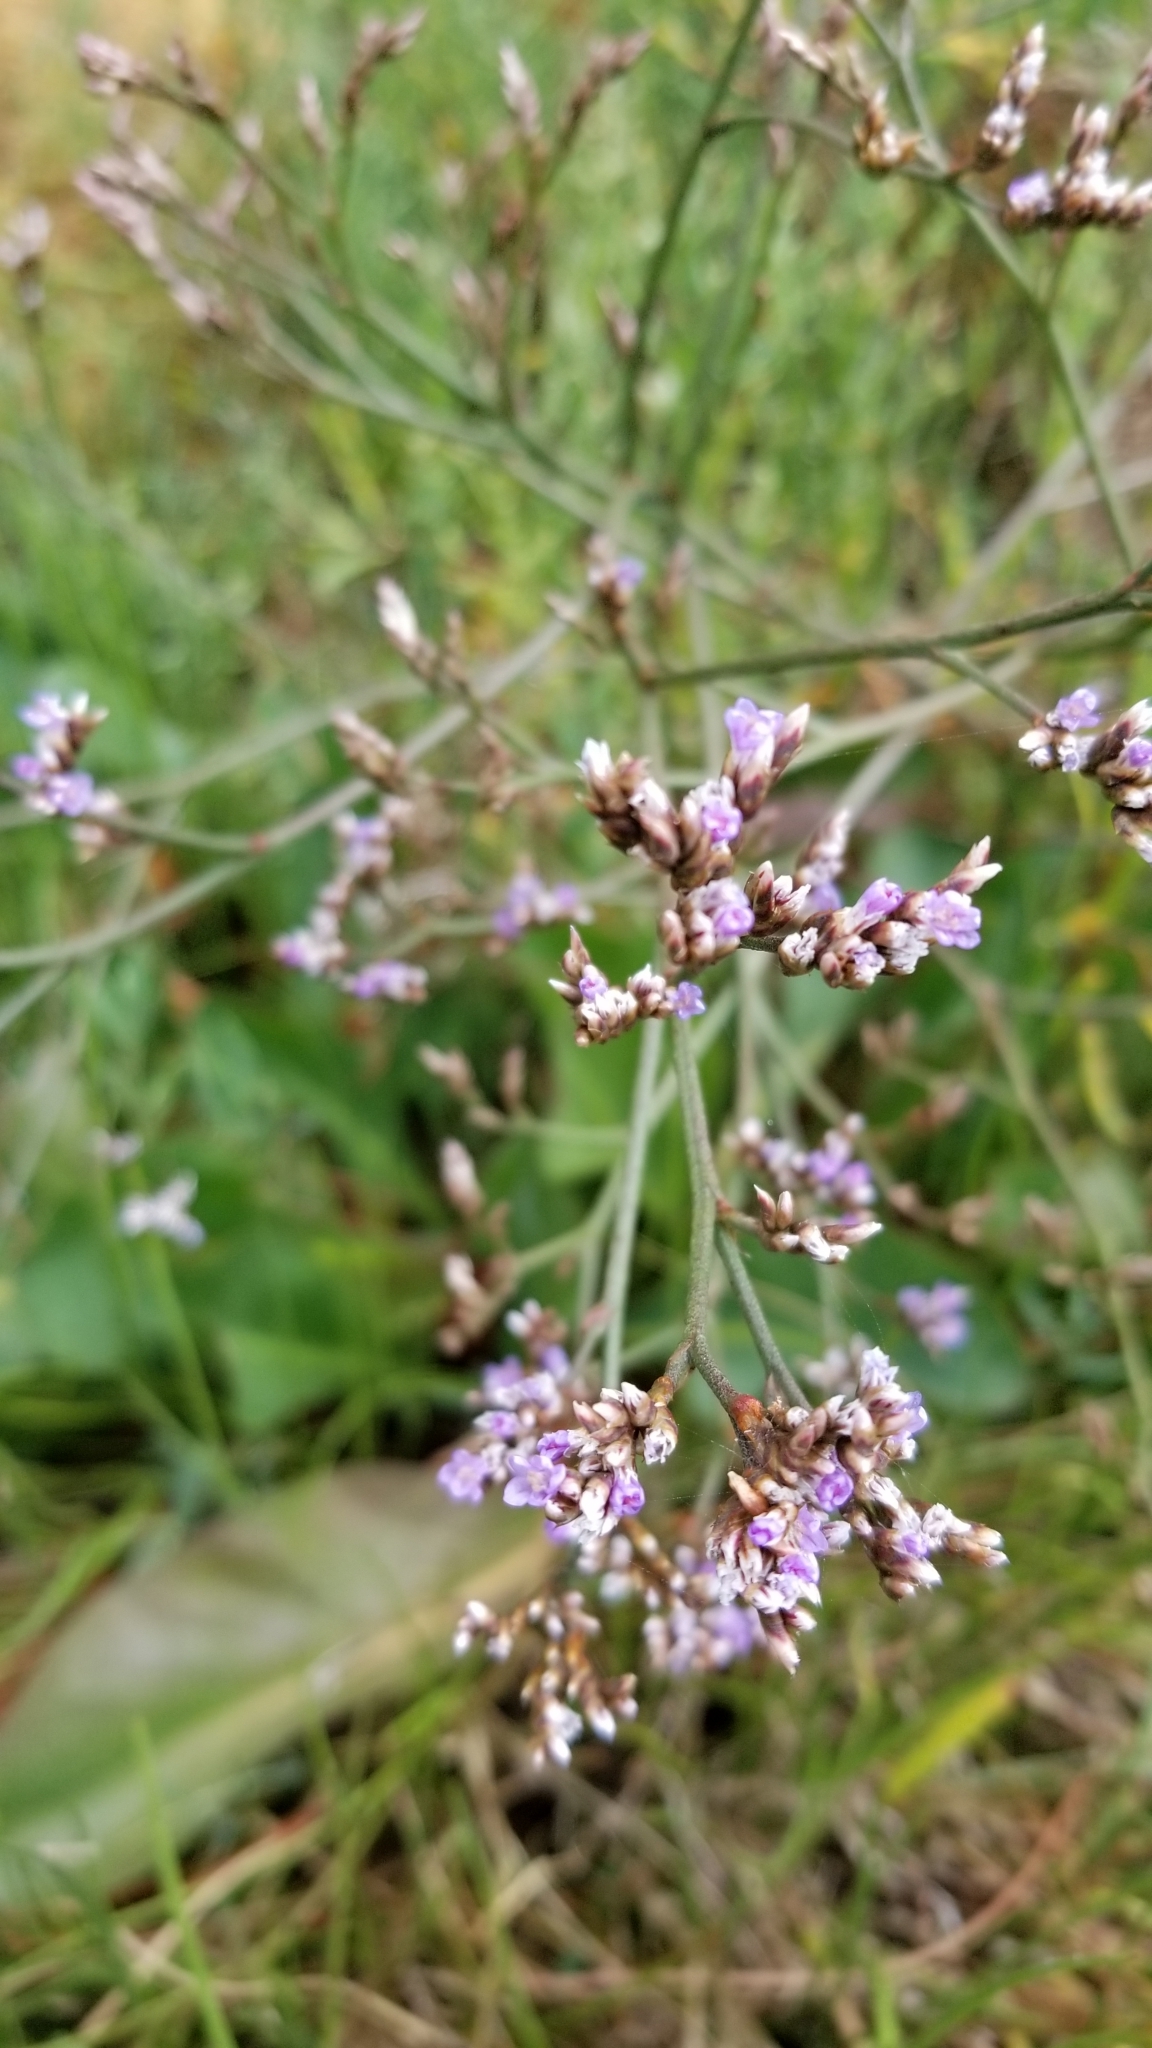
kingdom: Plantae
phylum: Tracheophyta
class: Magnoliopsida
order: Caryophyllales
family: Plumbaginaceae
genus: Limonium
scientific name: Limonium californicum
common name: Marsh-rosemary
